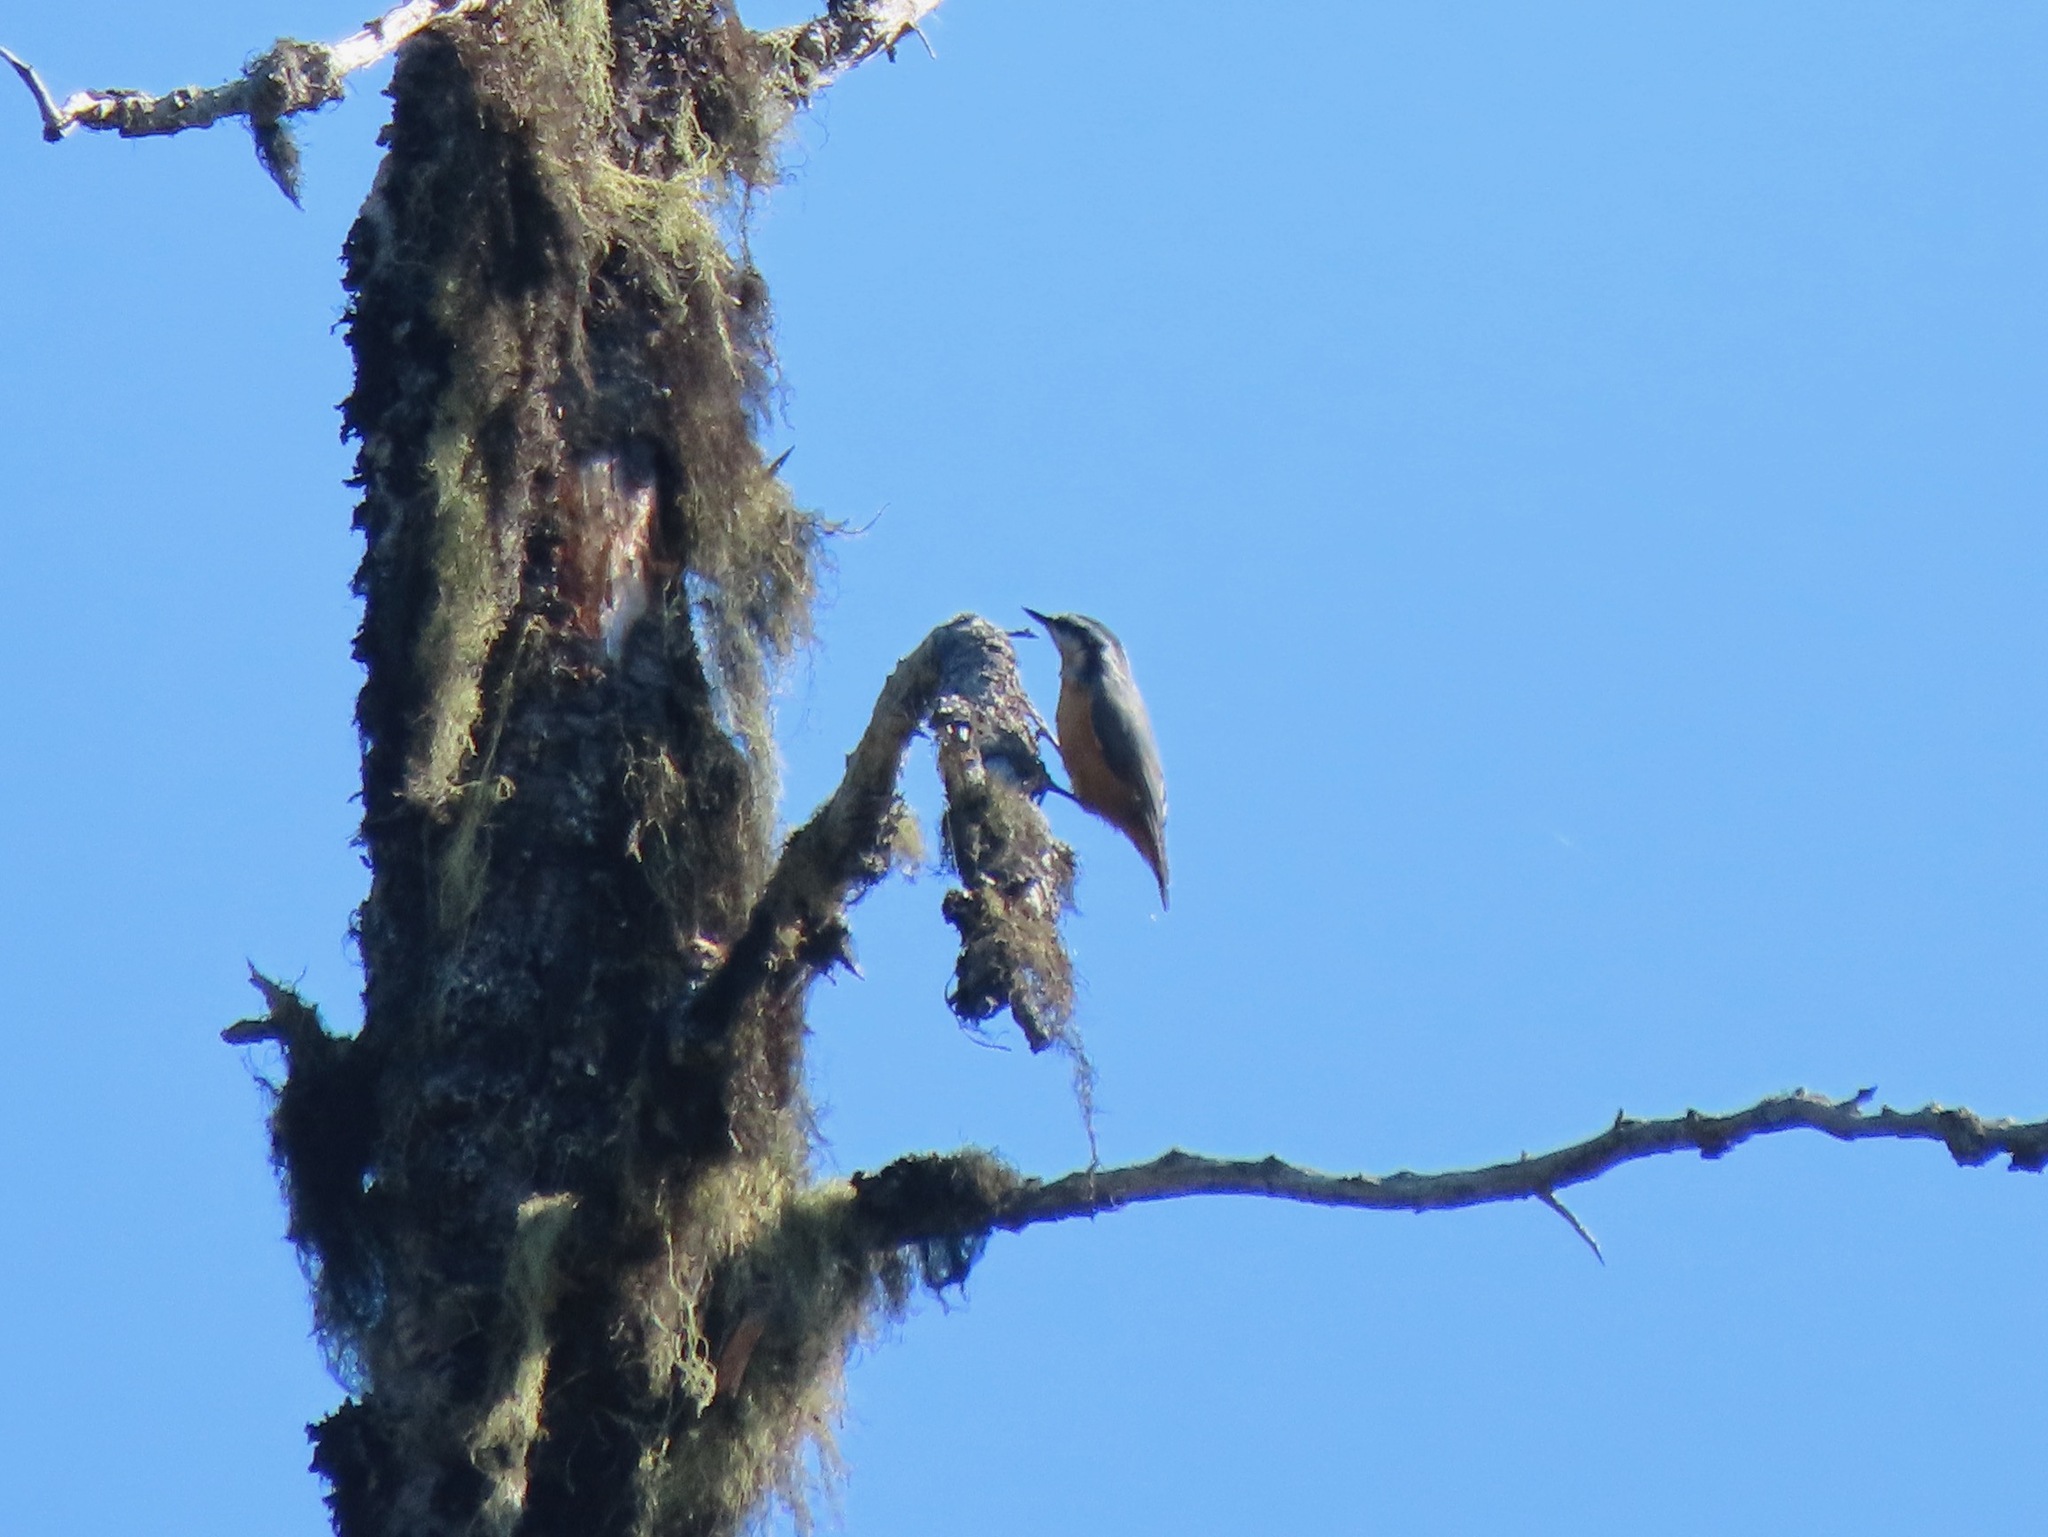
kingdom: Animalia
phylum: Chordata
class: Aves
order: Passeriformes
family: Sittidae
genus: Sitta
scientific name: Sitta canadensis
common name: Red-breasted nuthatch
